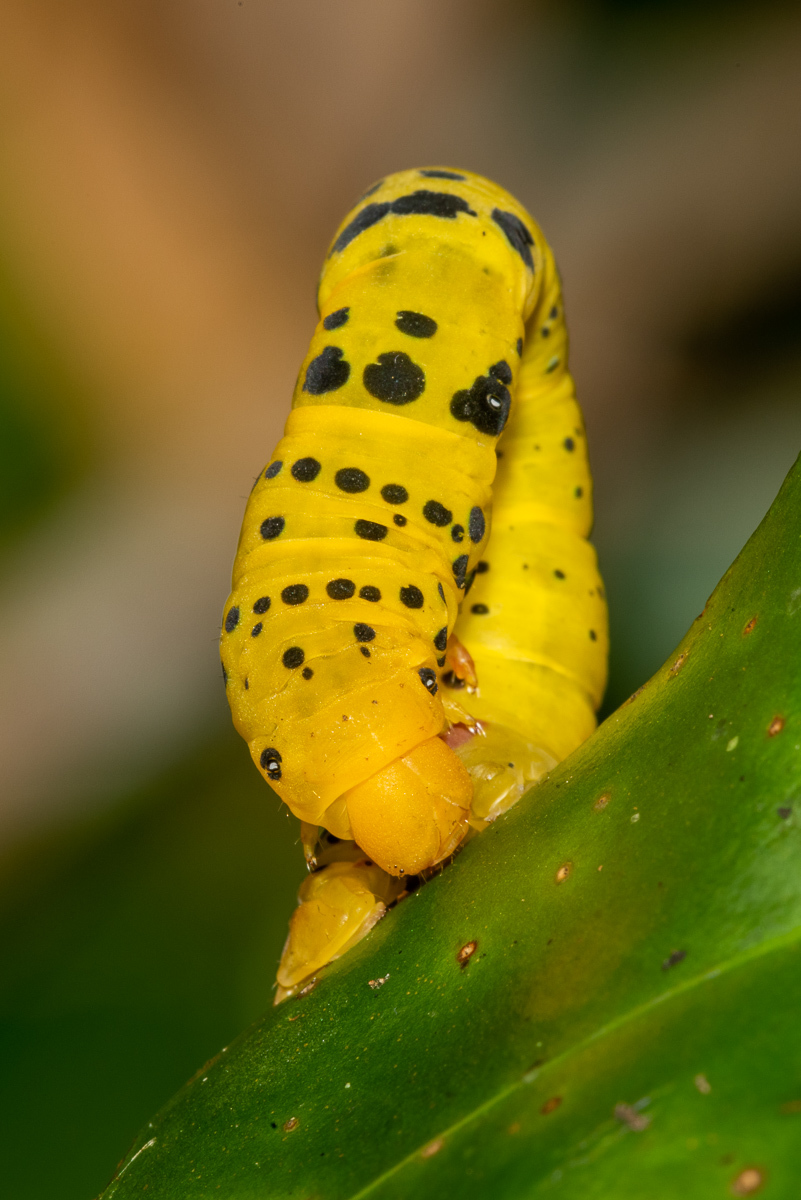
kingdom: Animalia
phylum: Arthropoda
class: Insecta
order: Lepidoptera
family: Geometridae
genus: Dysphania
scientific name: Dysphania numana
